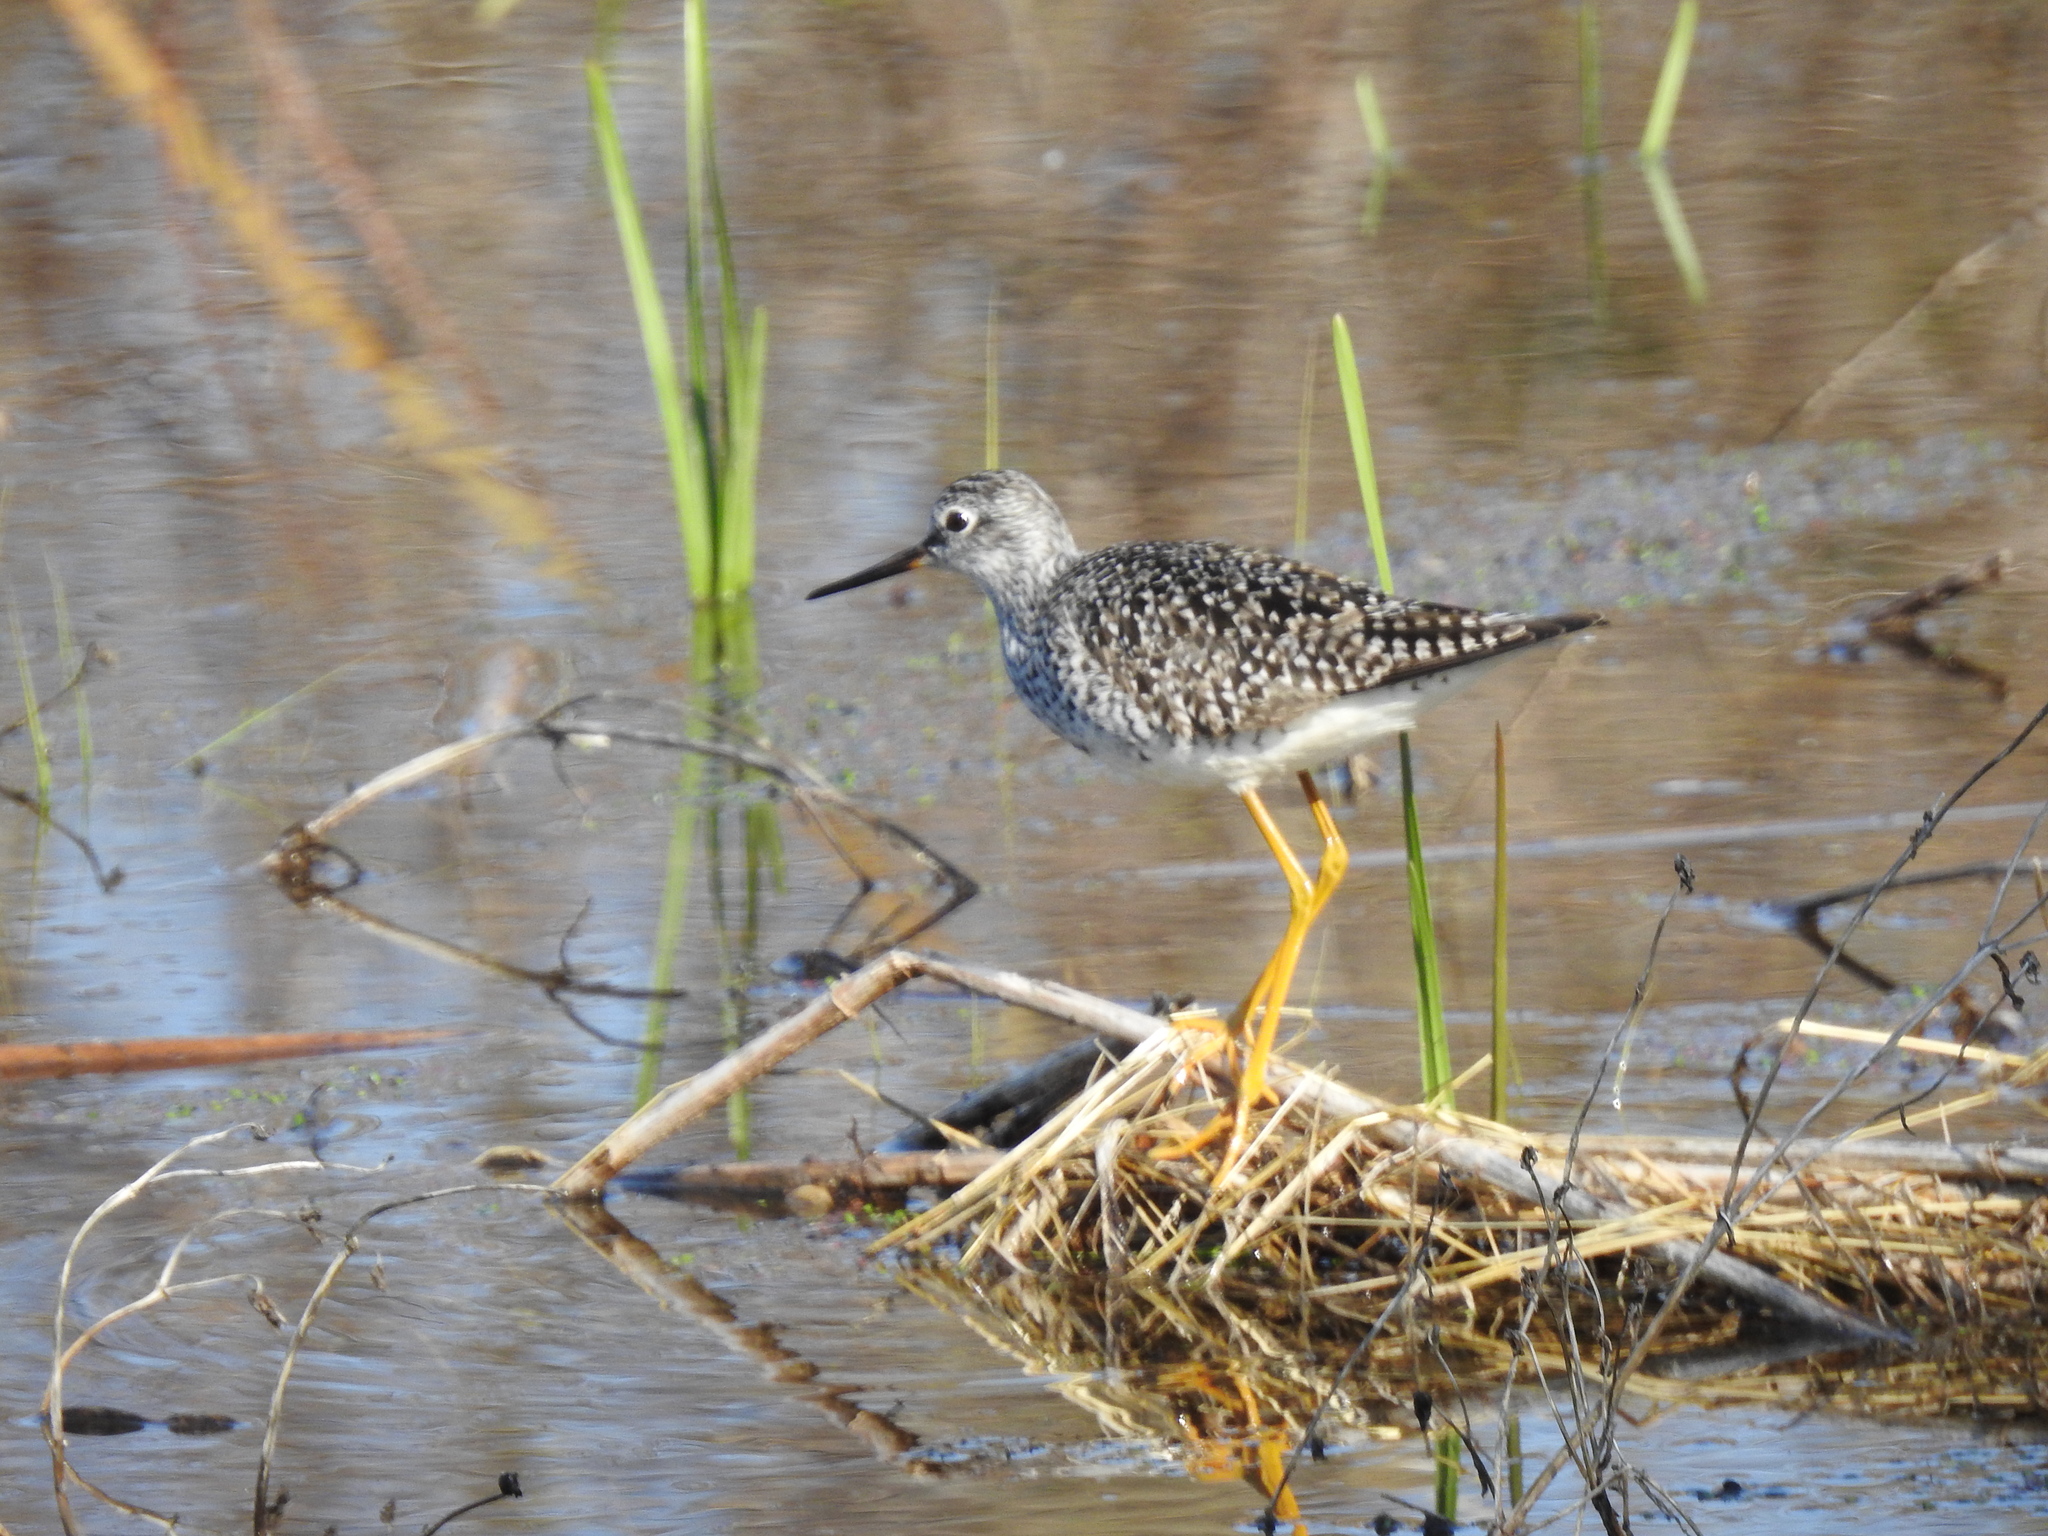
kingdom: Animalia
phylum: Chordata
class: Aves
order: Charadriiformes
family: Scolopacidae
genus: Tringa
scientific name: Tringa flavipes
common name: Lesser yellowlegs
